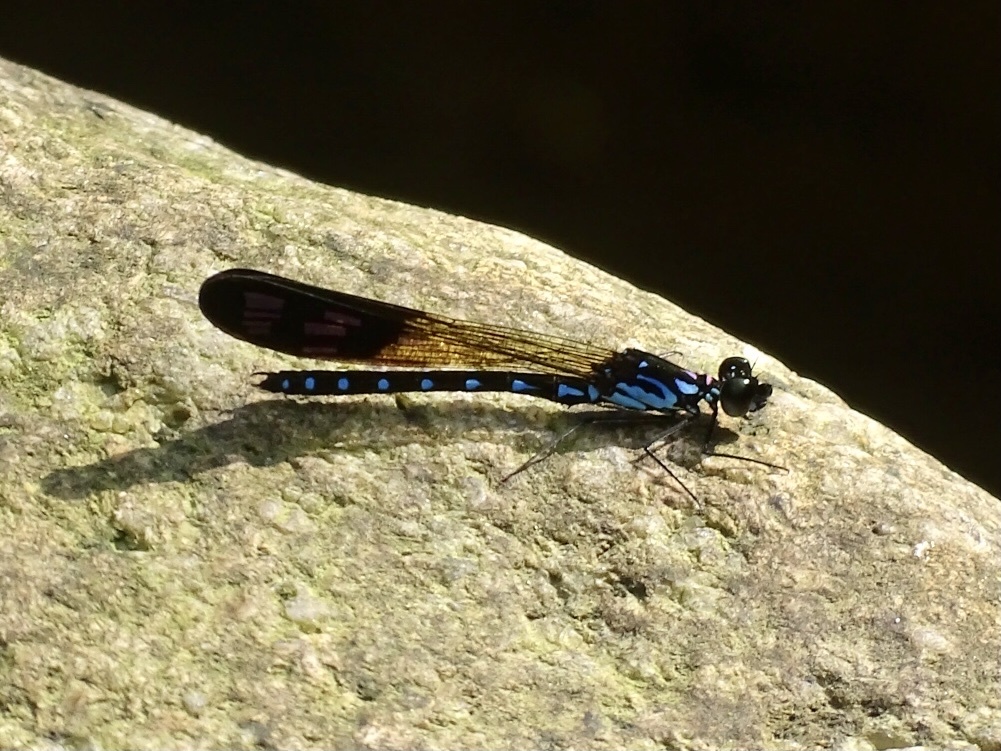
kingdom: Animalia
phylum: Arthropoda
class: Insecta
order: Odonata
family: Chlorocyphidae
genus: Heliocypha
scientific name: Heliocypha perforata
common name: Common blue jewel
